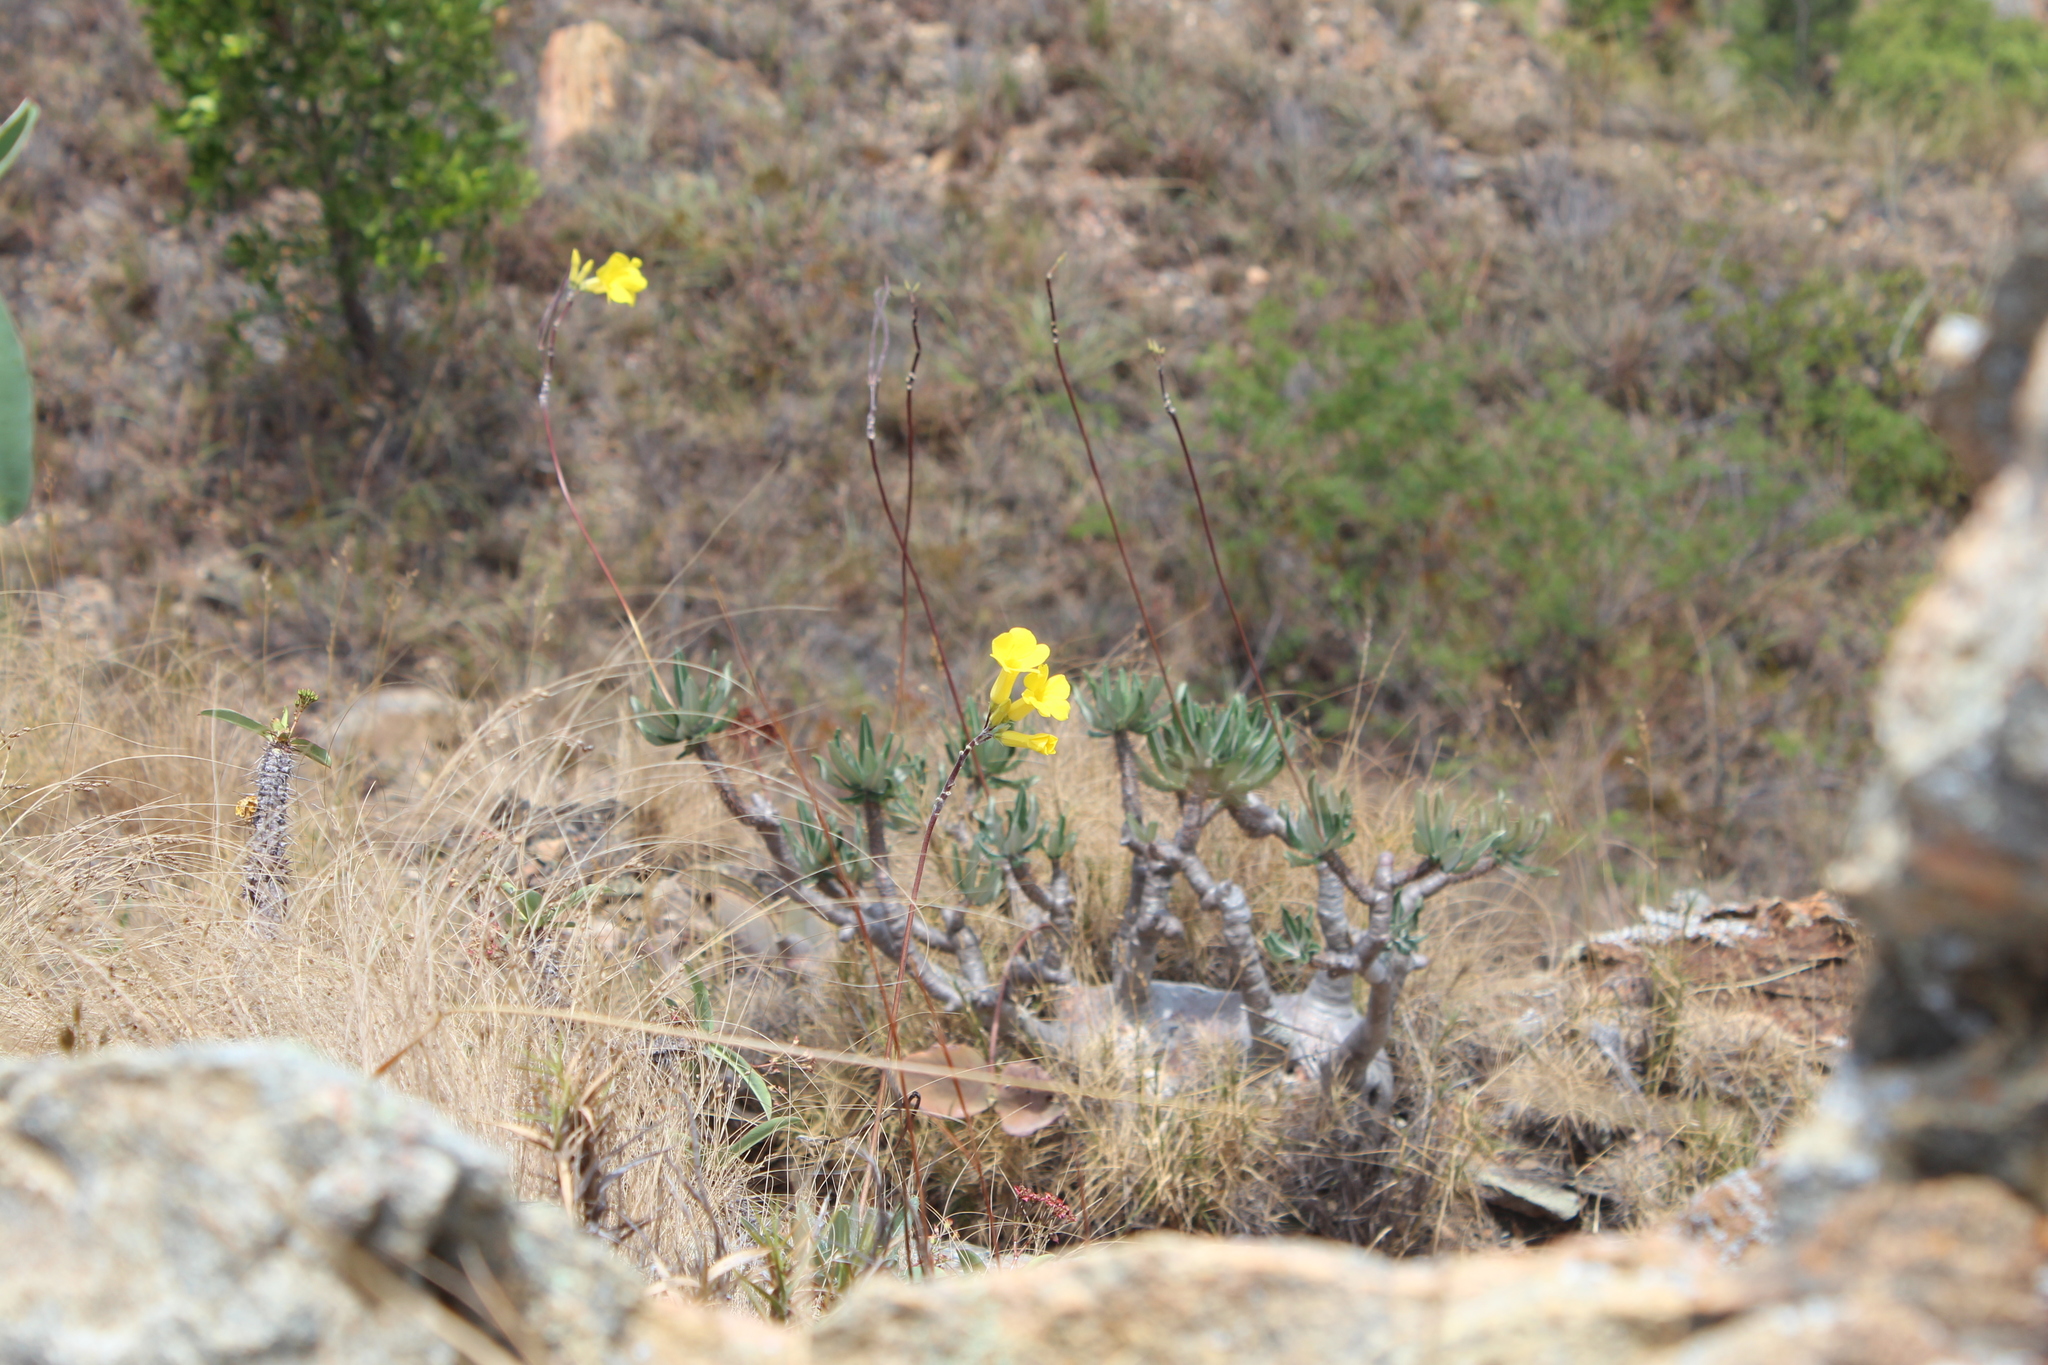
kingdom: Plantae
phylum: Tracheophyta
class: Magnoliopsida
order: Gentianales
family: Apocynaceae
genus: Pachypodium
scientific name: Pachypodium rosulatum
